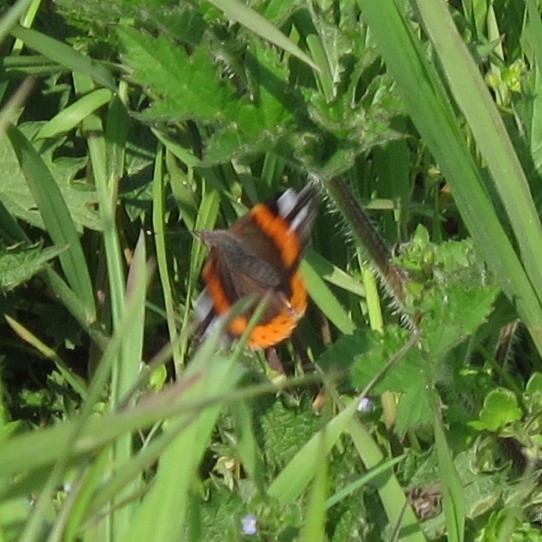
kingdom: Animalia
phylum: Arthropoda
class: Insecta
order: Lepidoptera
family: Nymphalidae
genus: Vanessa
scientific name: Vanessa atalanta
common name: Red admiral
